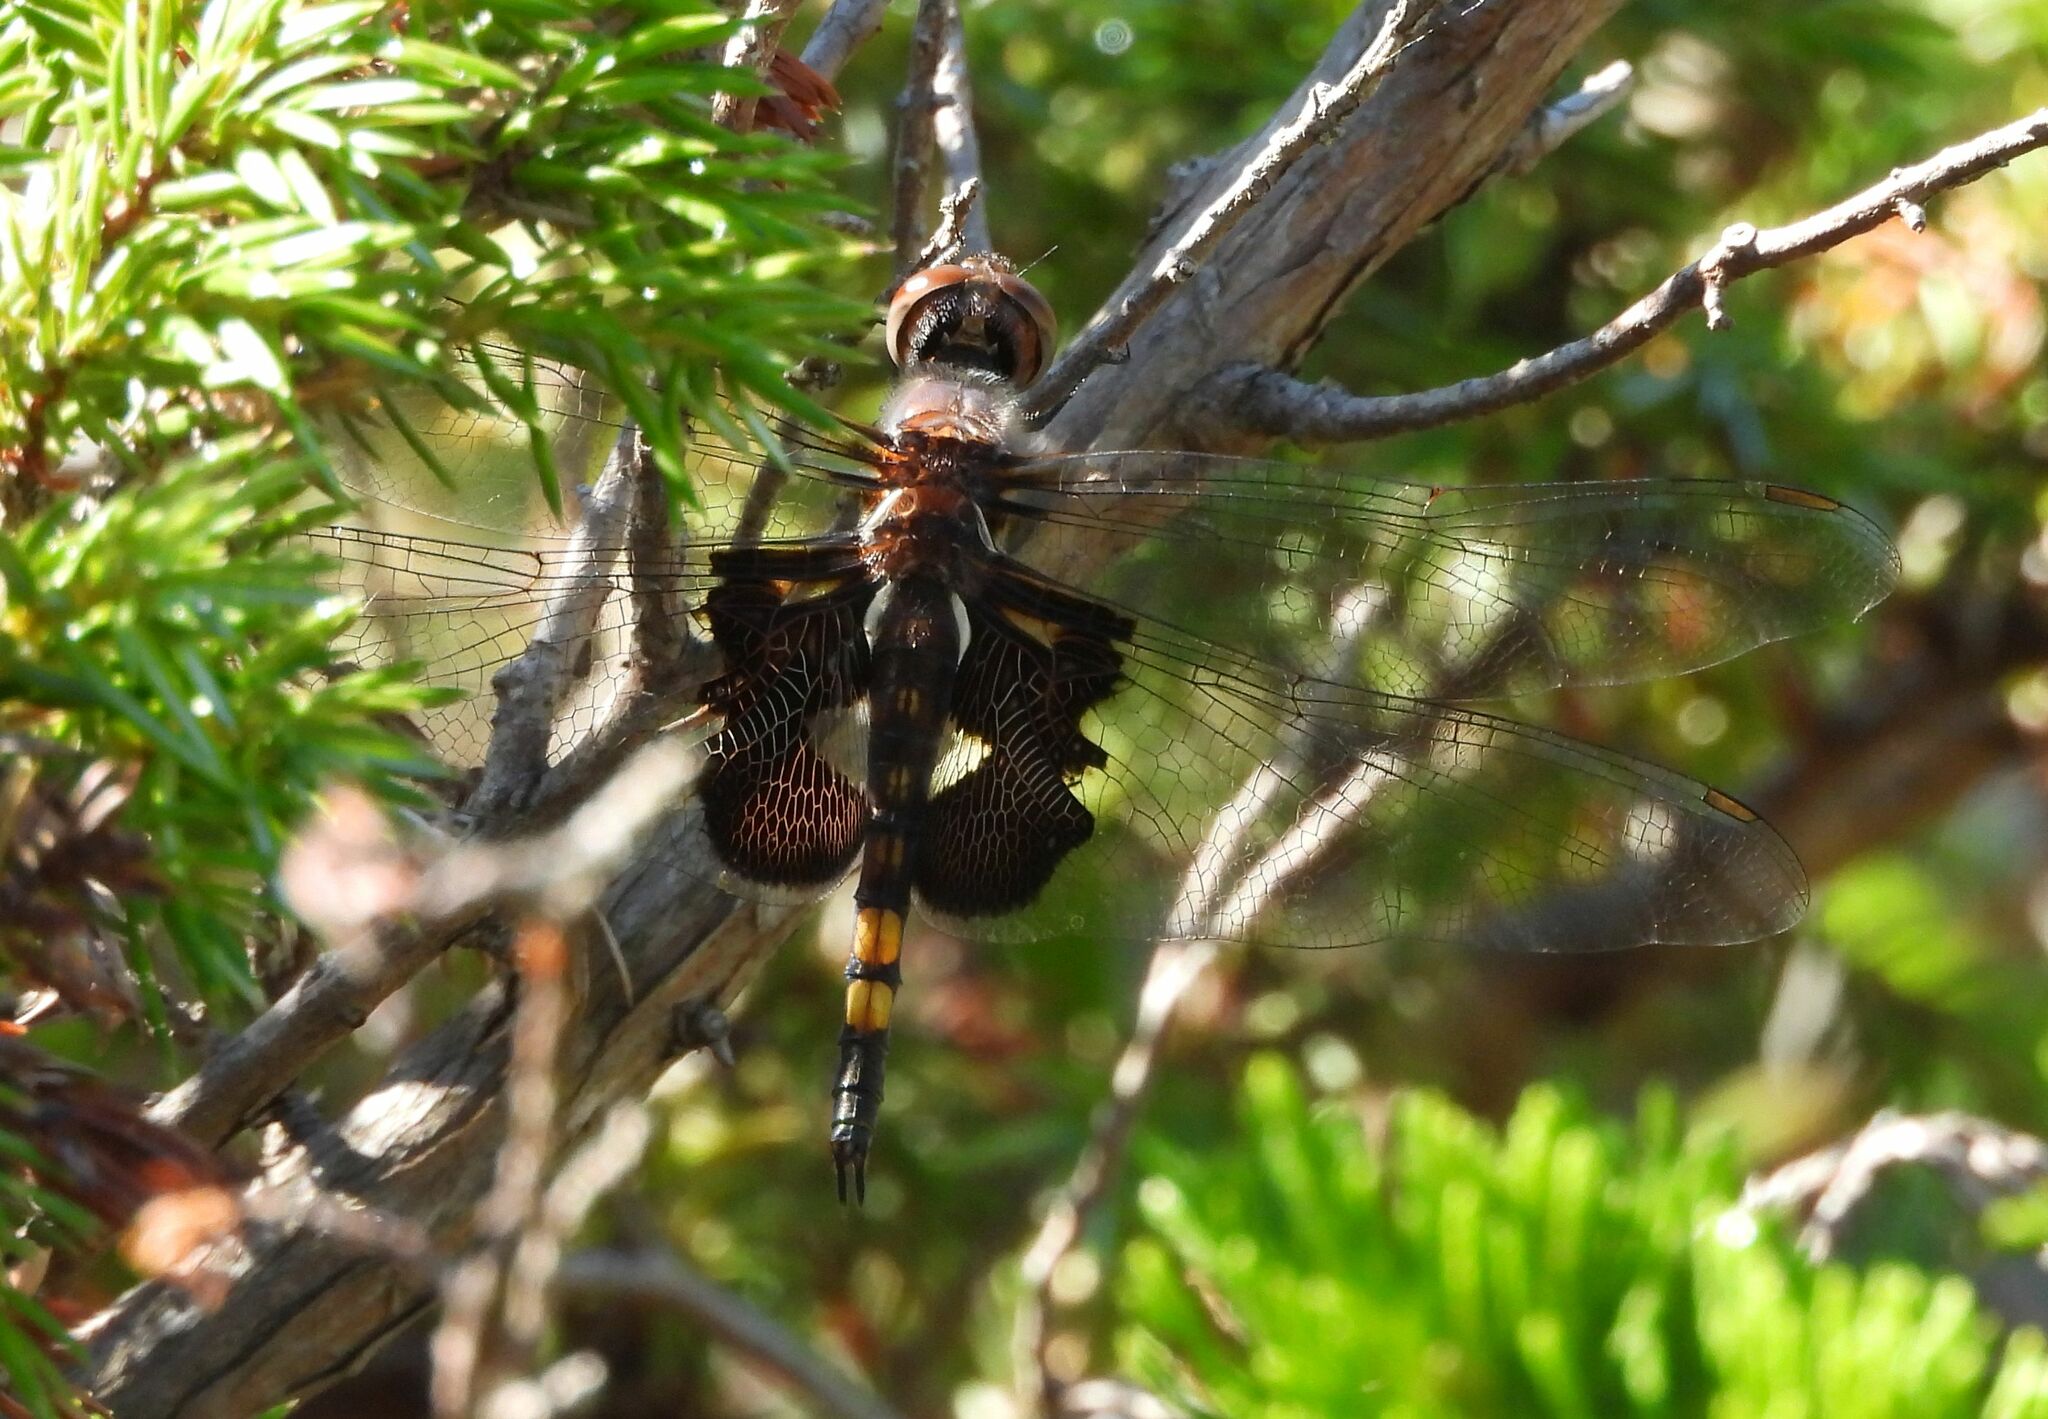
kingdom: Animalia
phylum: Arthropoda
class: Insecta
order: Odonata
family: Libellulidae
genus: Tramea
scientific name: Tramea lacerata
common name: Black saddlebags
